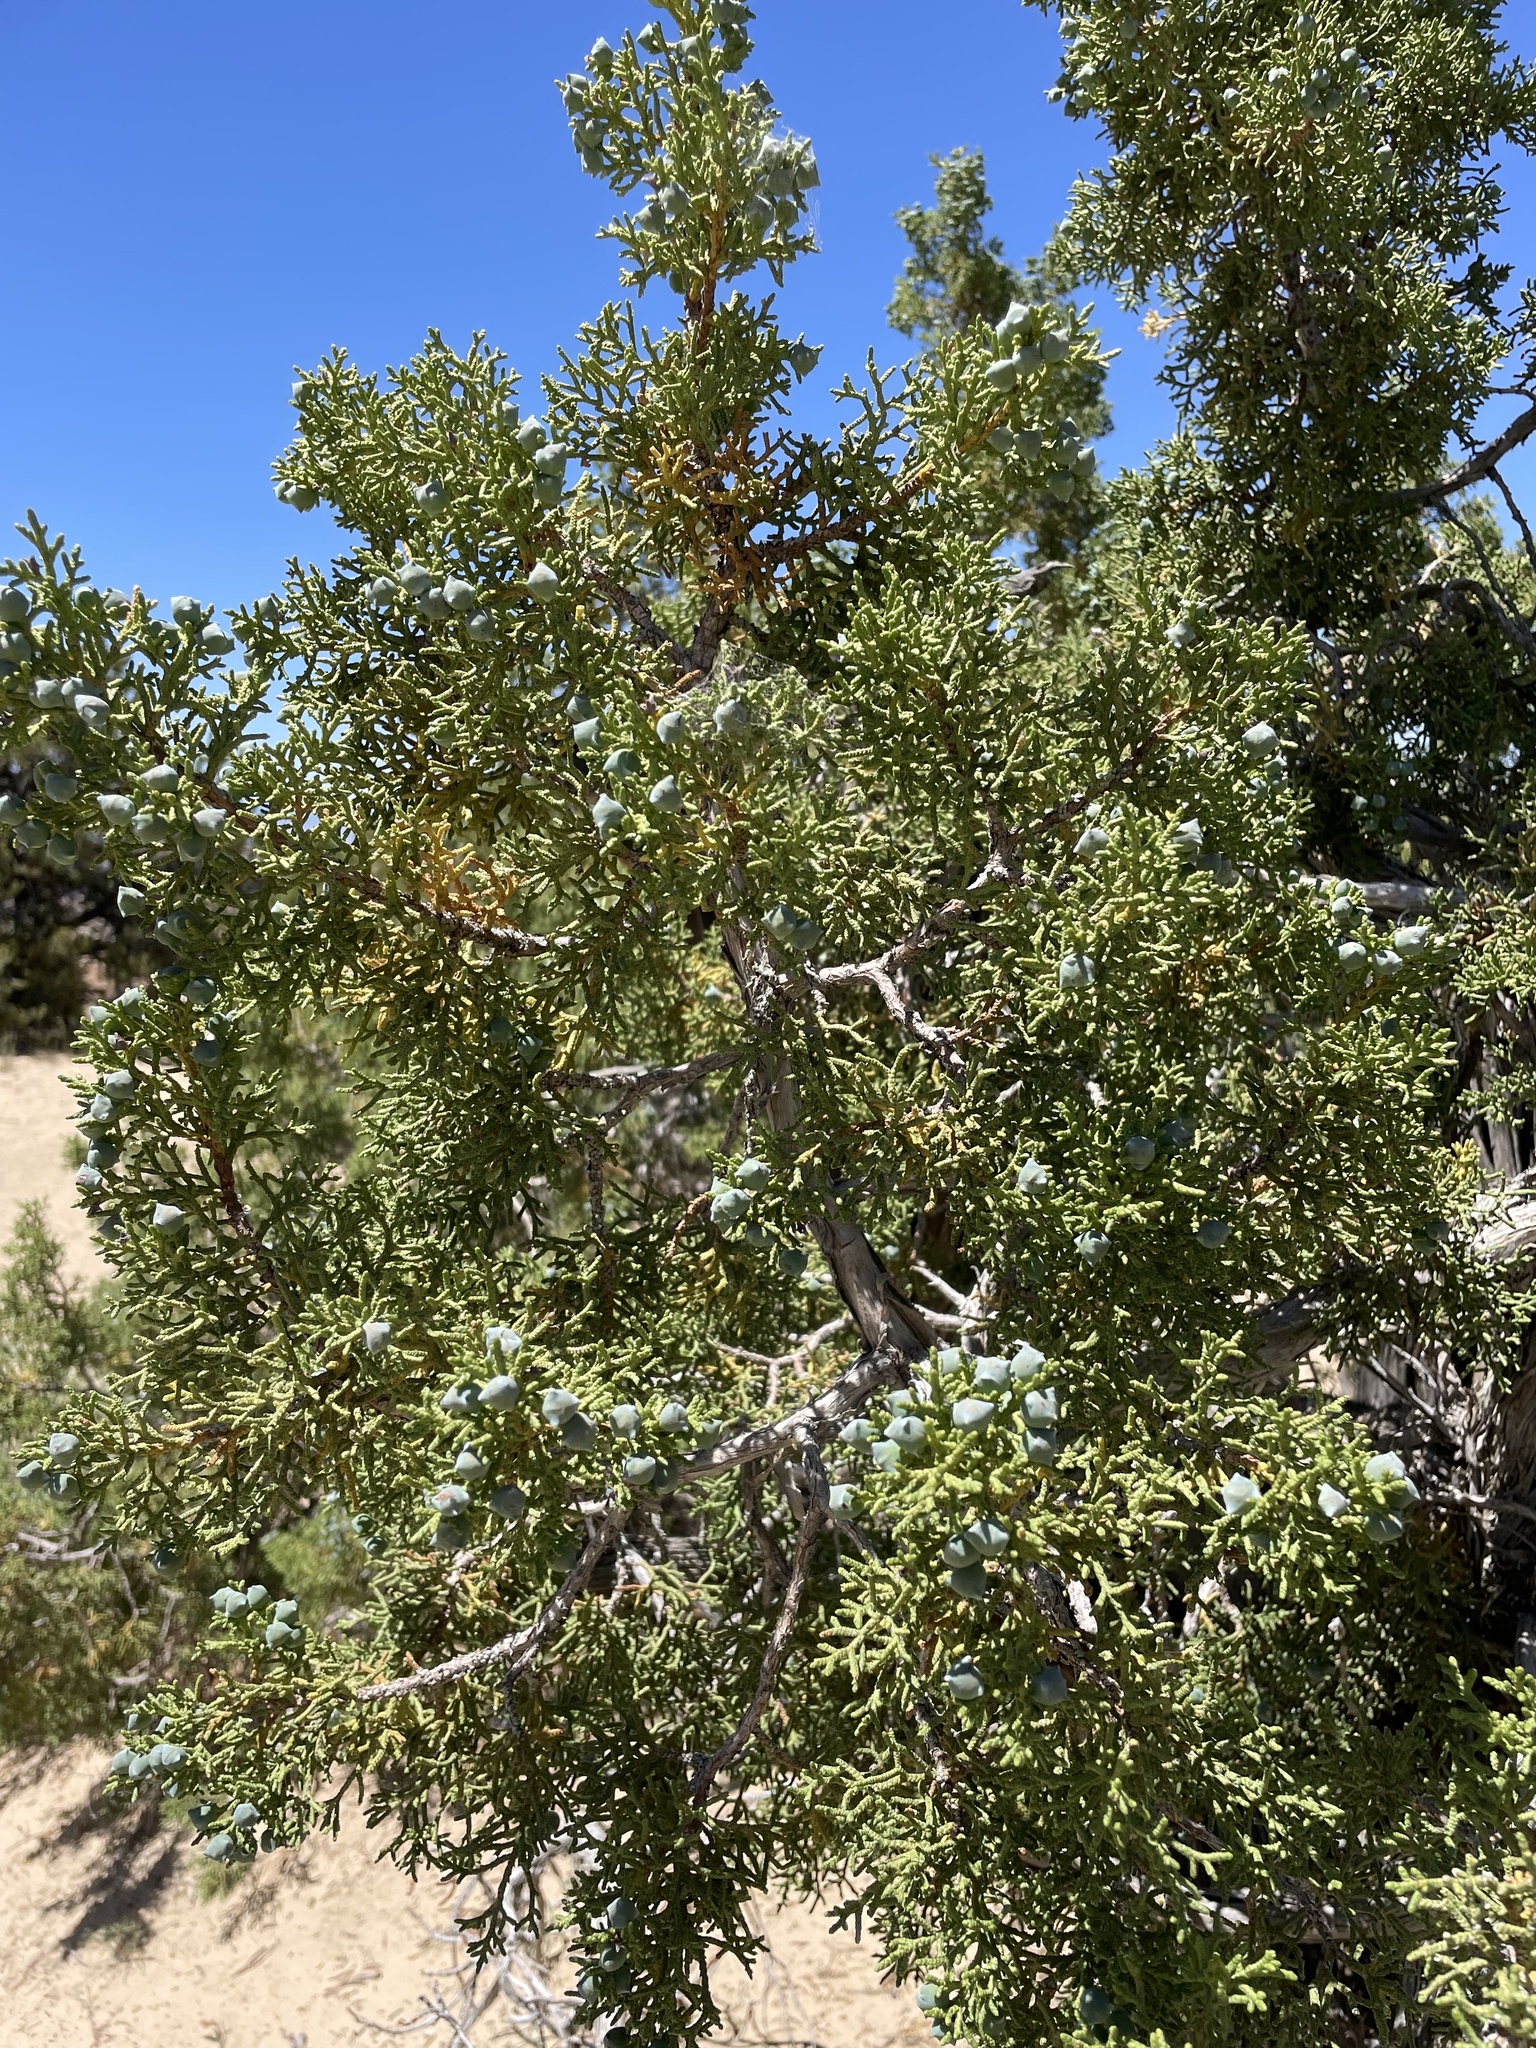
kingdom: Plantae
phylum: Tracheophyta
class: Pinopsida
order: Pinales
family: Cupressaceae
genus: Juniperus
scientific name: Juniperus osteosperma
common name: Utah juniper
